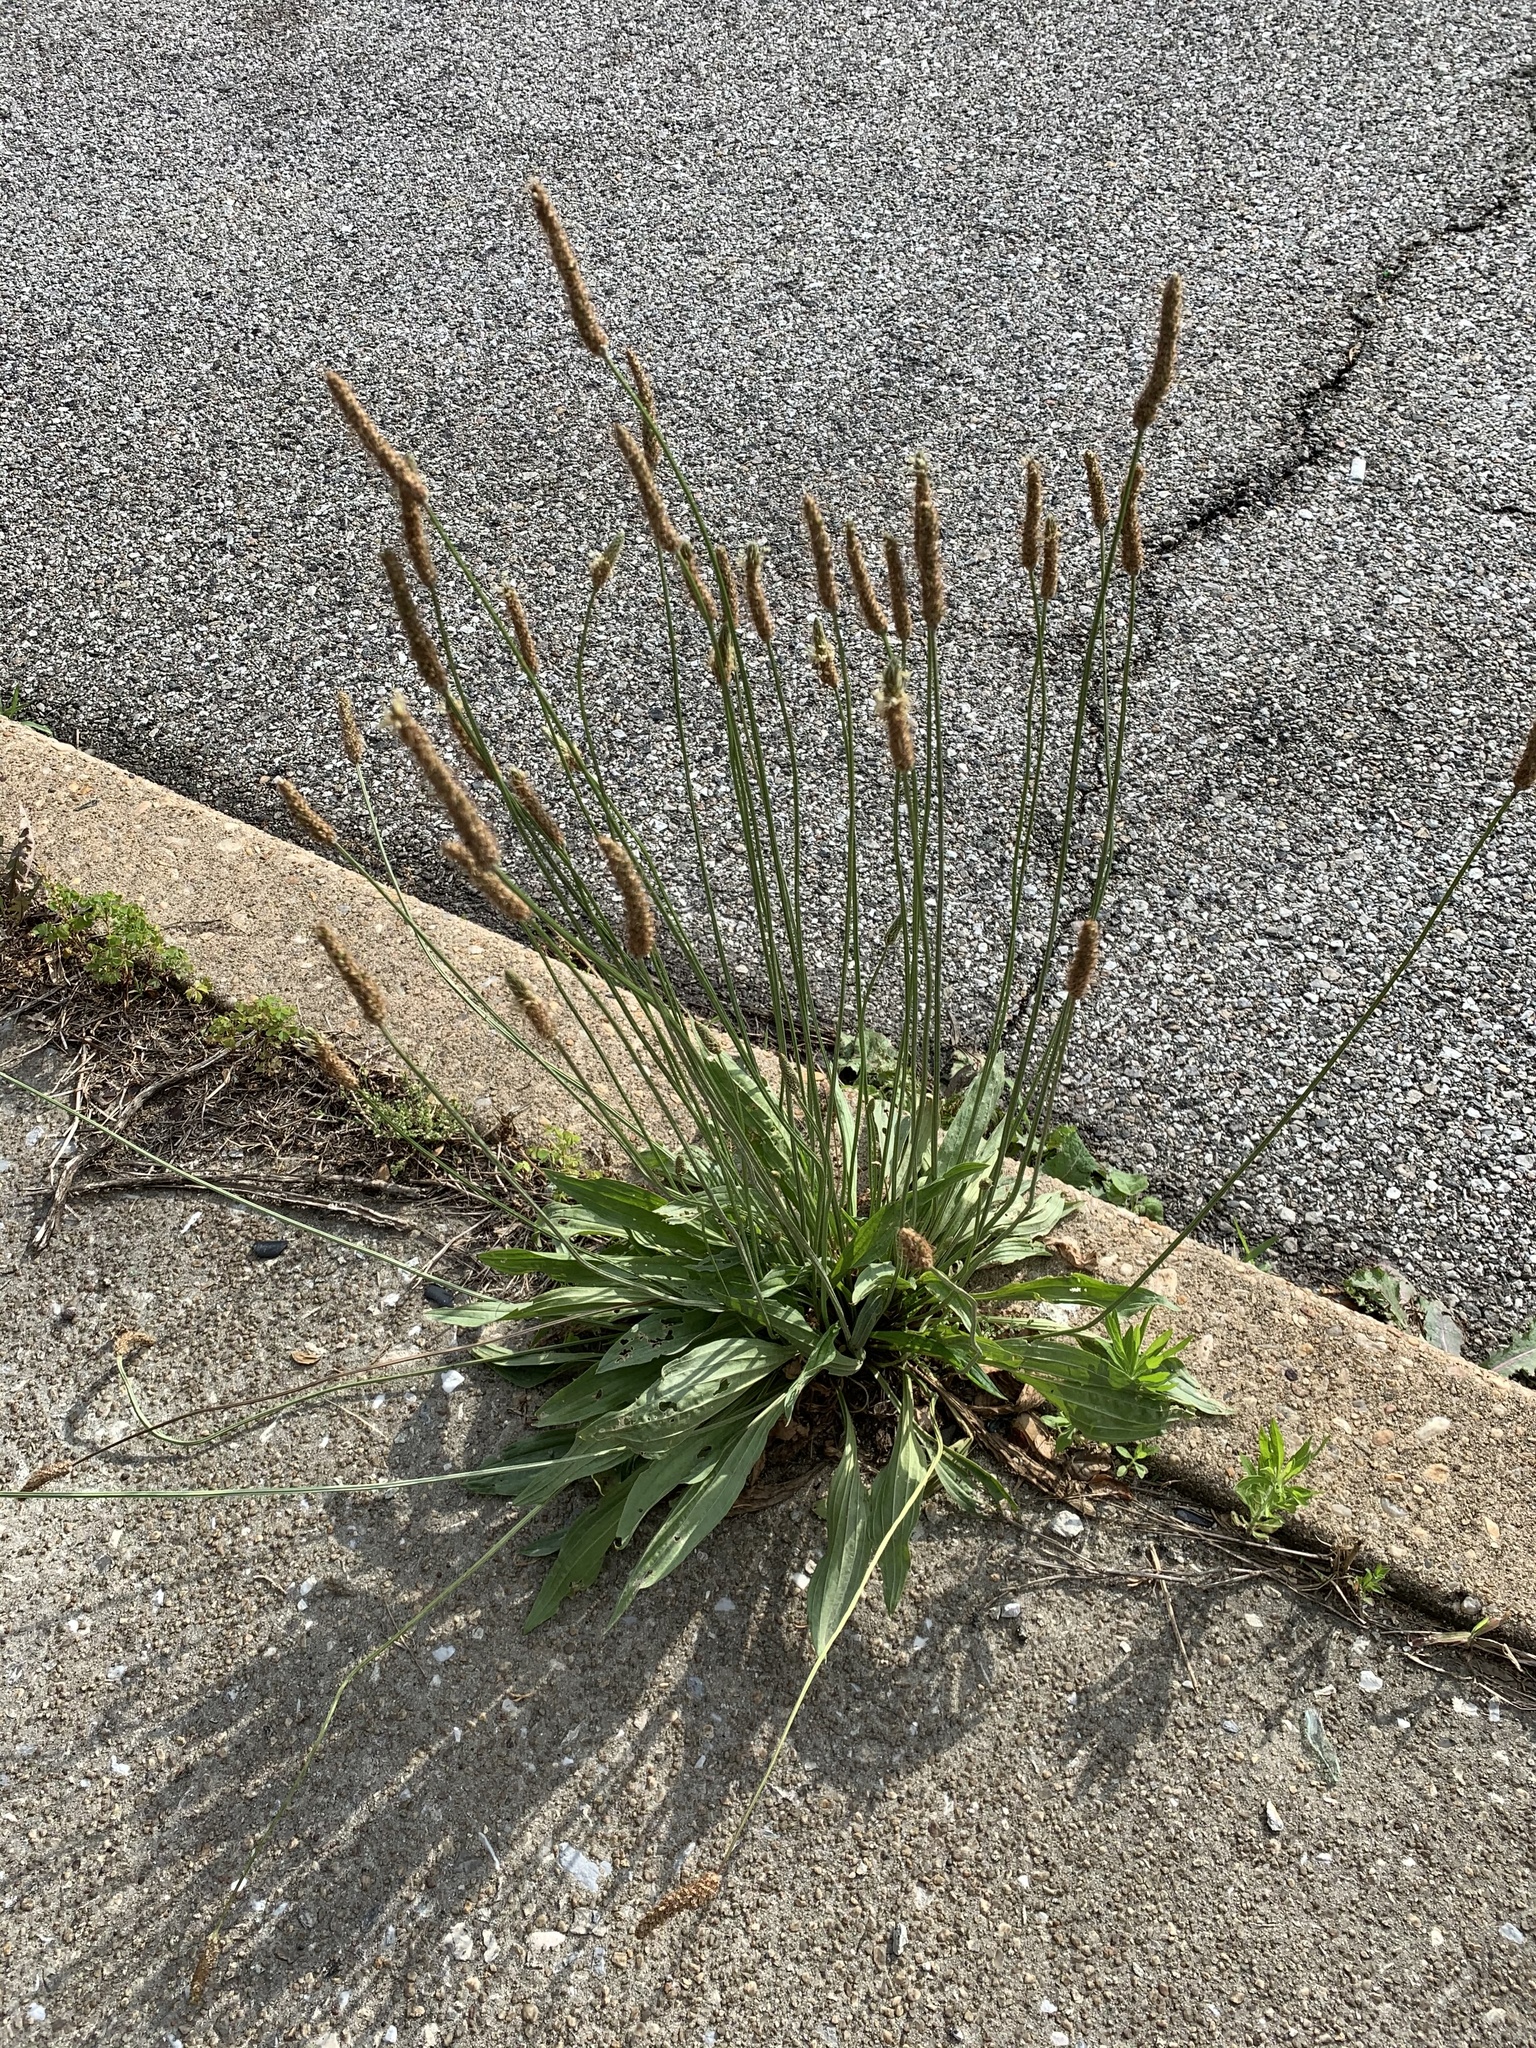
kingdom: Plantae
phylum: Tracheophyta
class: Magnoliopsida
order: Lamiales
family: Plantaginaceae
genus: Plantago
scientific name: Plantago lanceolata
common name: Ribwort plantain
